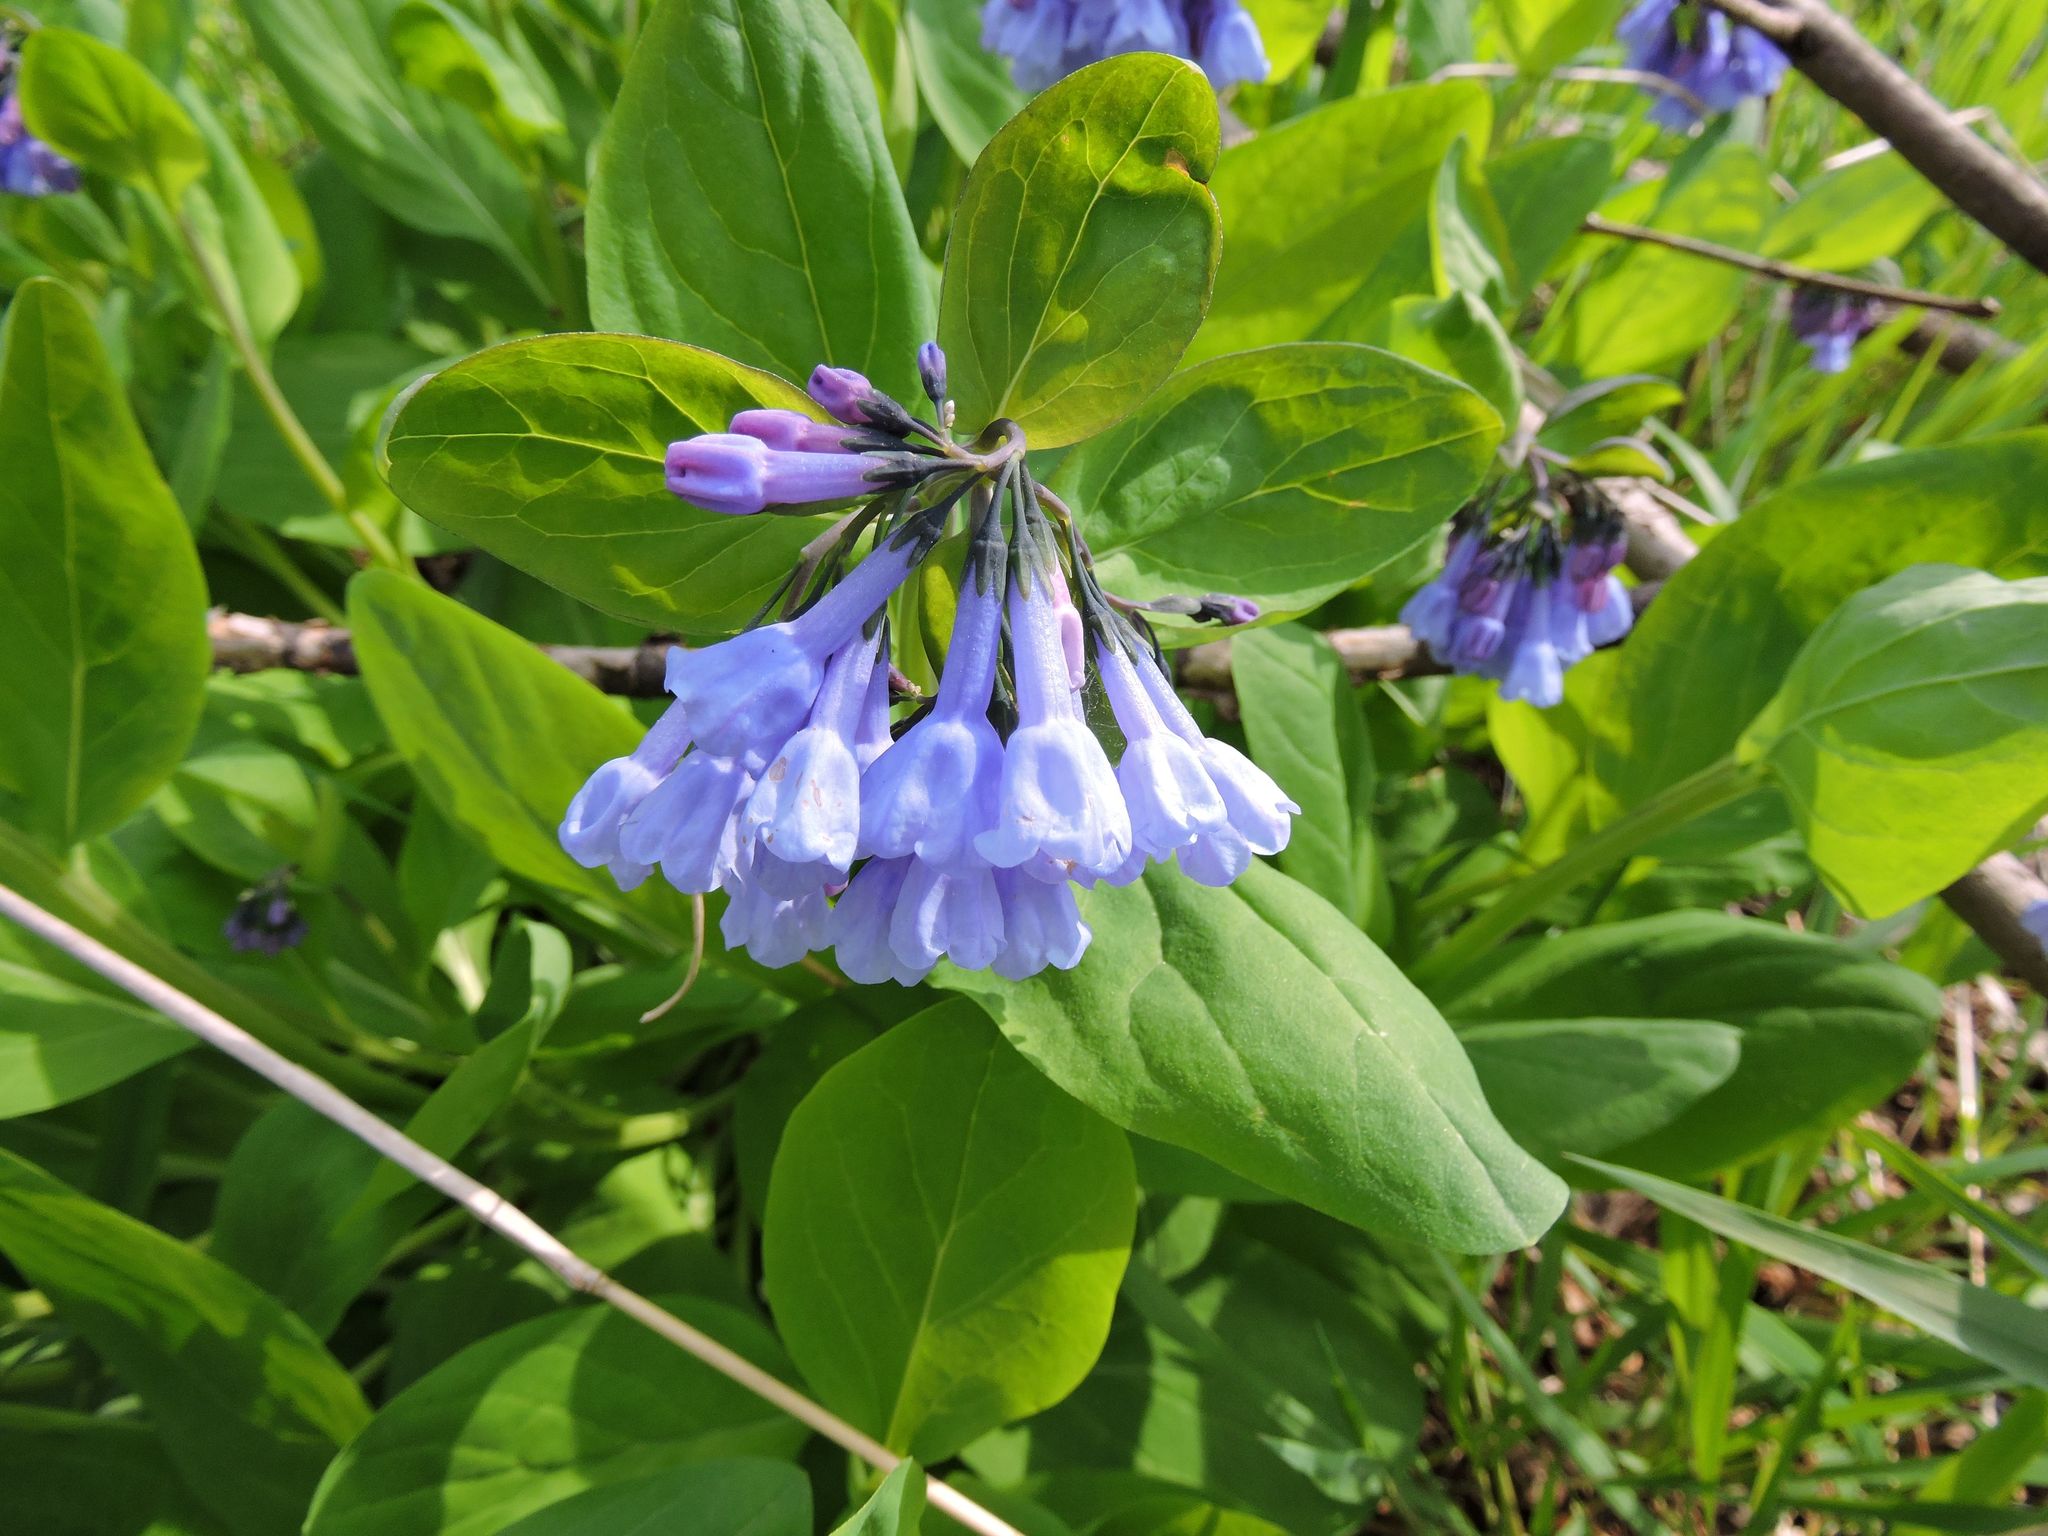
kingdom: Plantae
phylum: Tracheophyta
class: Magnoliopsida
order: Boraginales
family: Boraginaceae
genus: Mertensia
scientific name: Mertensia virginica
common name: Virginia bluebells
